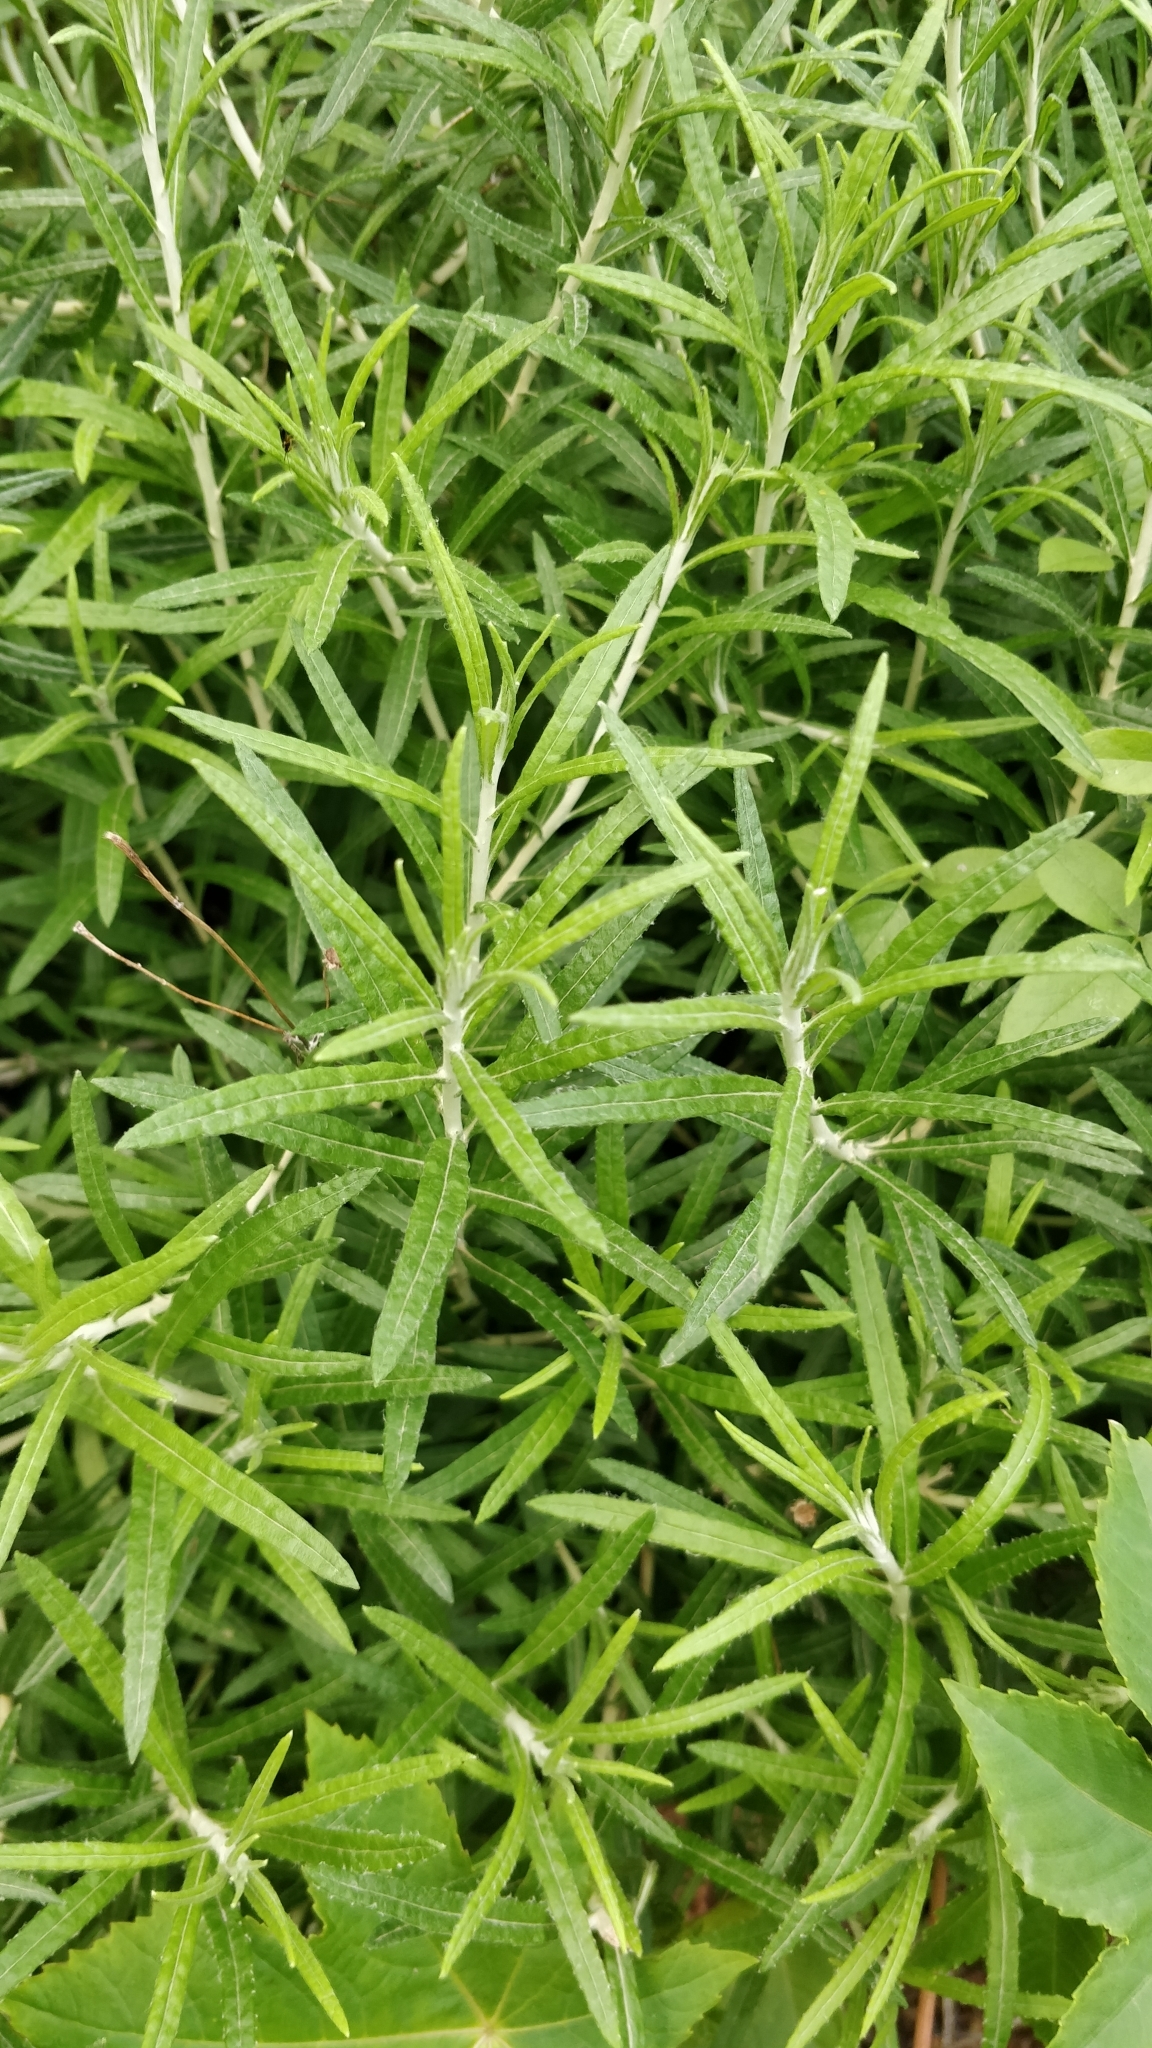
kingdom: Plantae
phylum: Tracheophyta
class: Magnoliopsida
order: Asterales
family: Asteraceae
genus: Phagnalon
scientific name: Phagnalon saxatile
